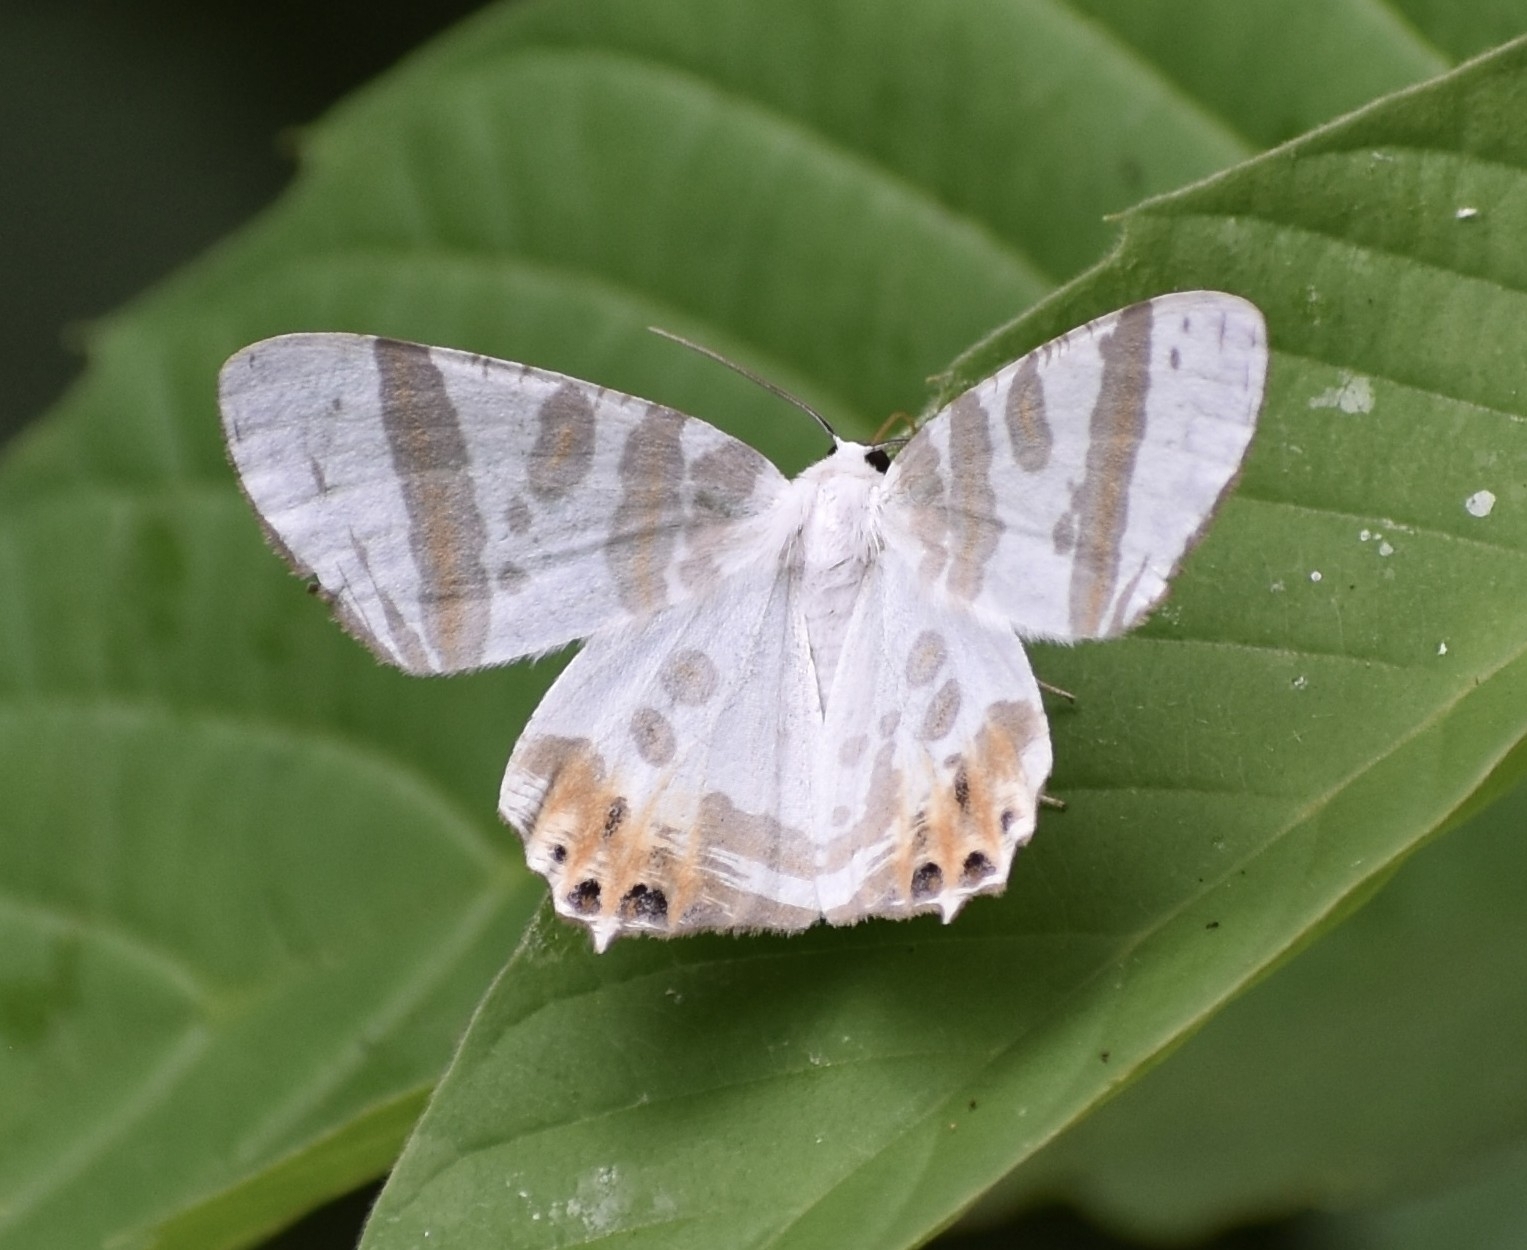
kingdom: Animalia
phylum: Arthropoda
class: Insecta
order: Lepidoptera
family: Geometridae
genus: Tristrophis
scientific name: Tristrophis rectifascia
